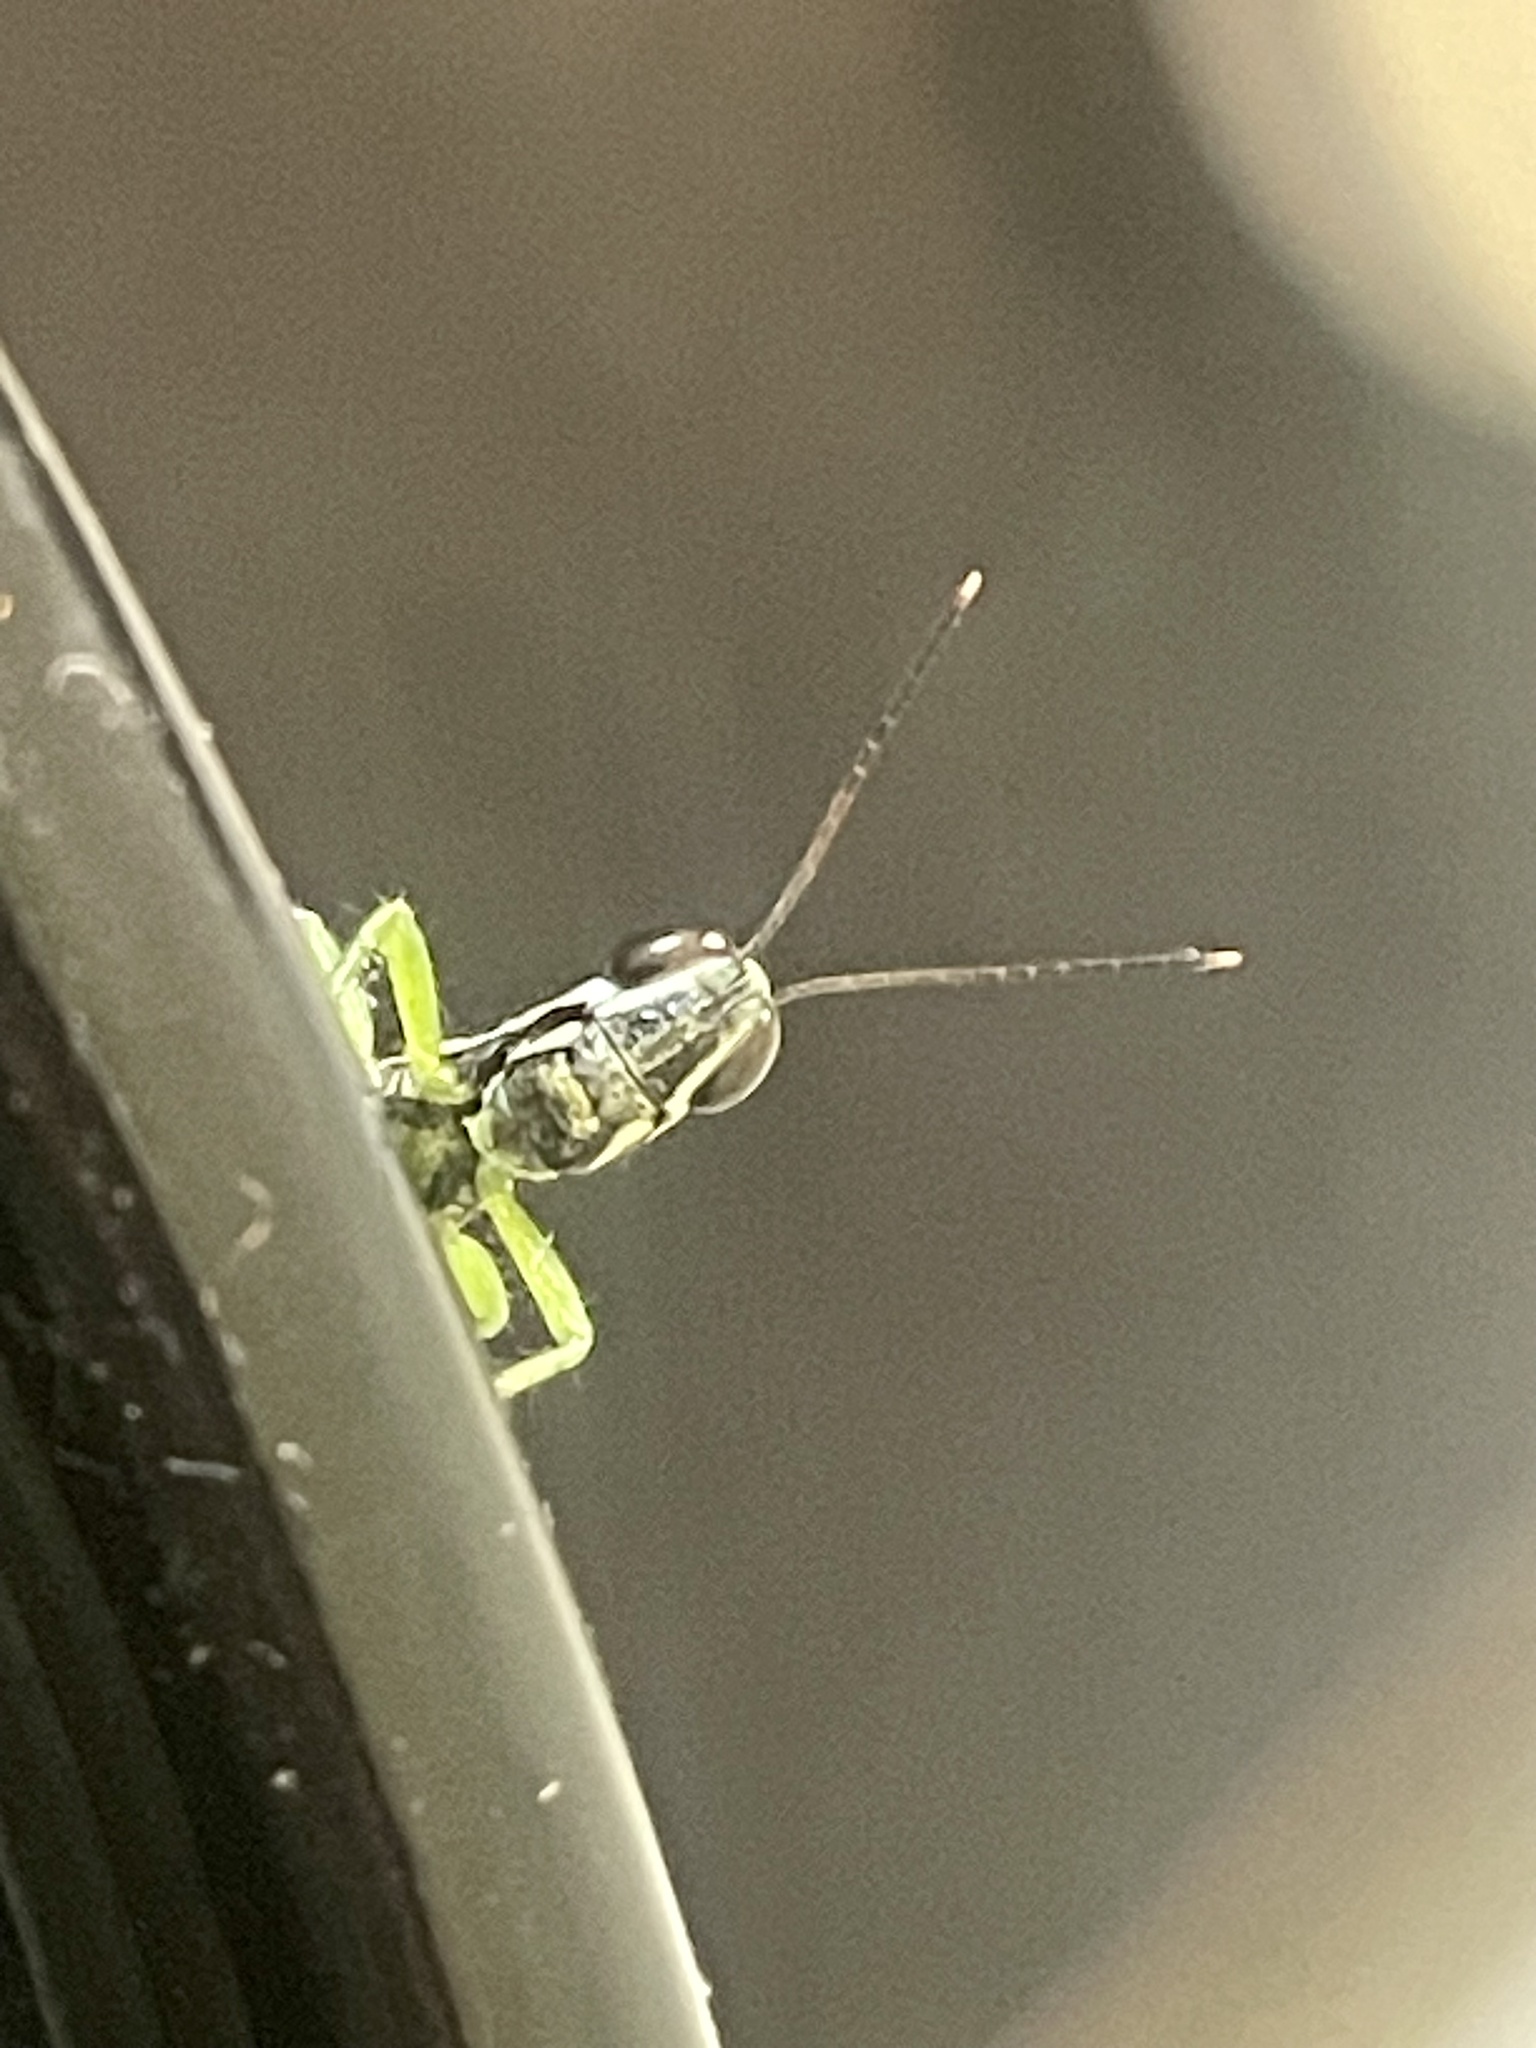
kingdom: Animalia
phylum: Arthropoda
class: Insecta
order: Orthoptera
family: Acrididae
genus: Chitaura
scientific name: Chitaura indica
